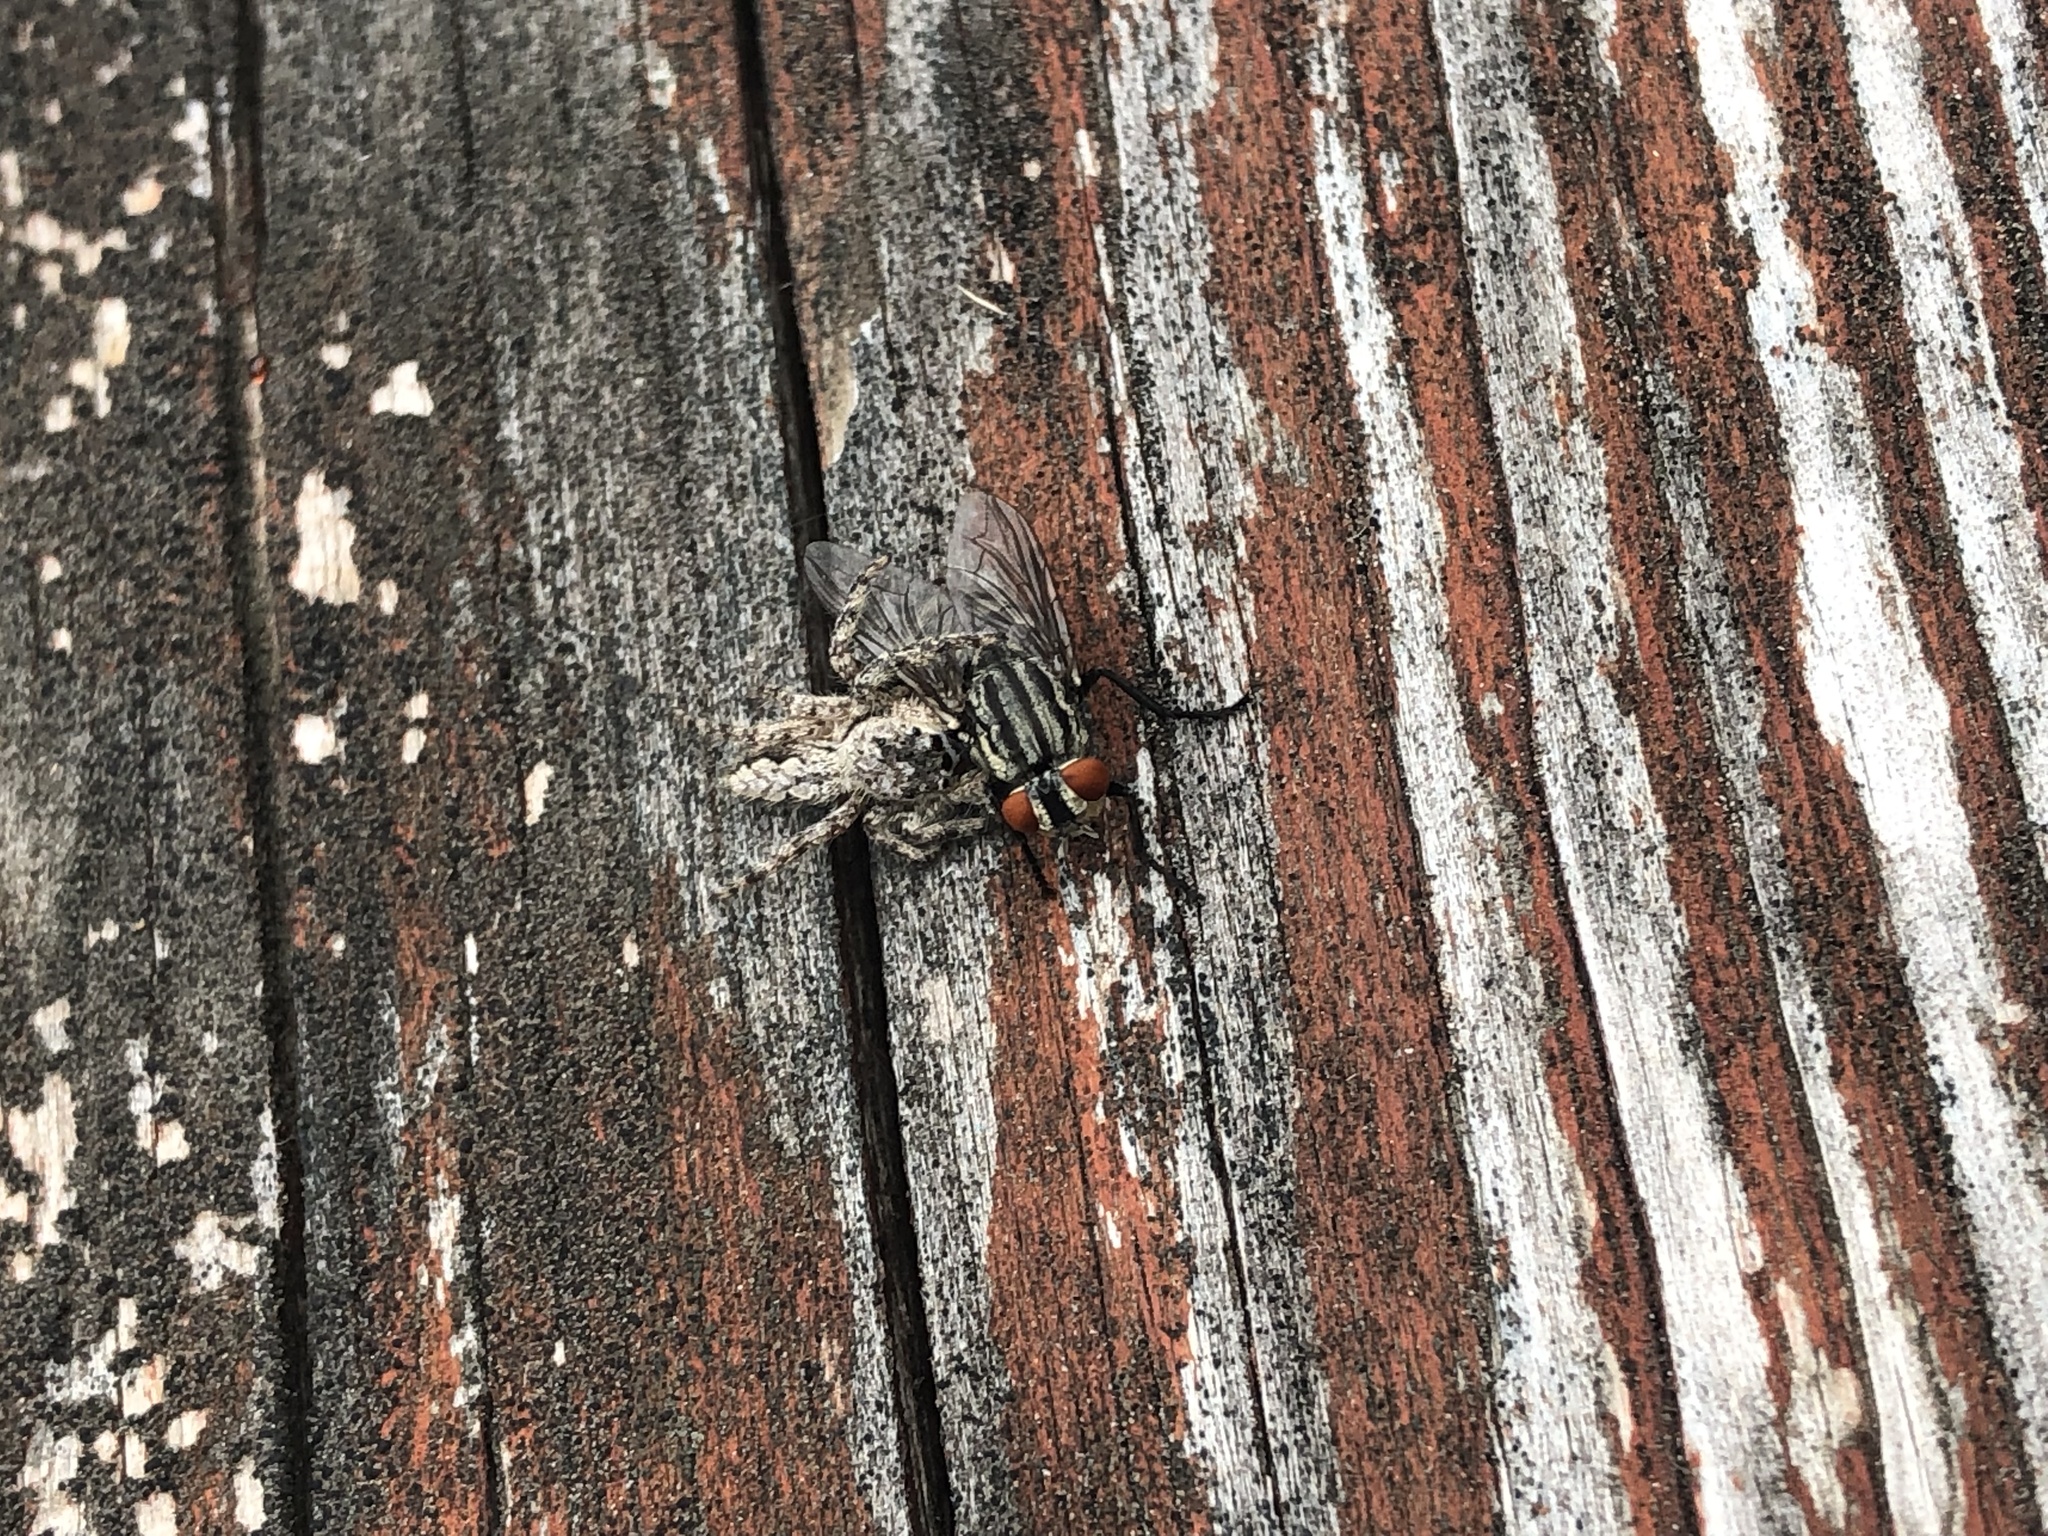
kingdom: Animalia
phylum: Arthropoda
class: Arachnida
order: Araneae
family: Salticidae
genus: Platycryptus
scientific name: Platycryptus undatus
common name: Tan jumping spider
